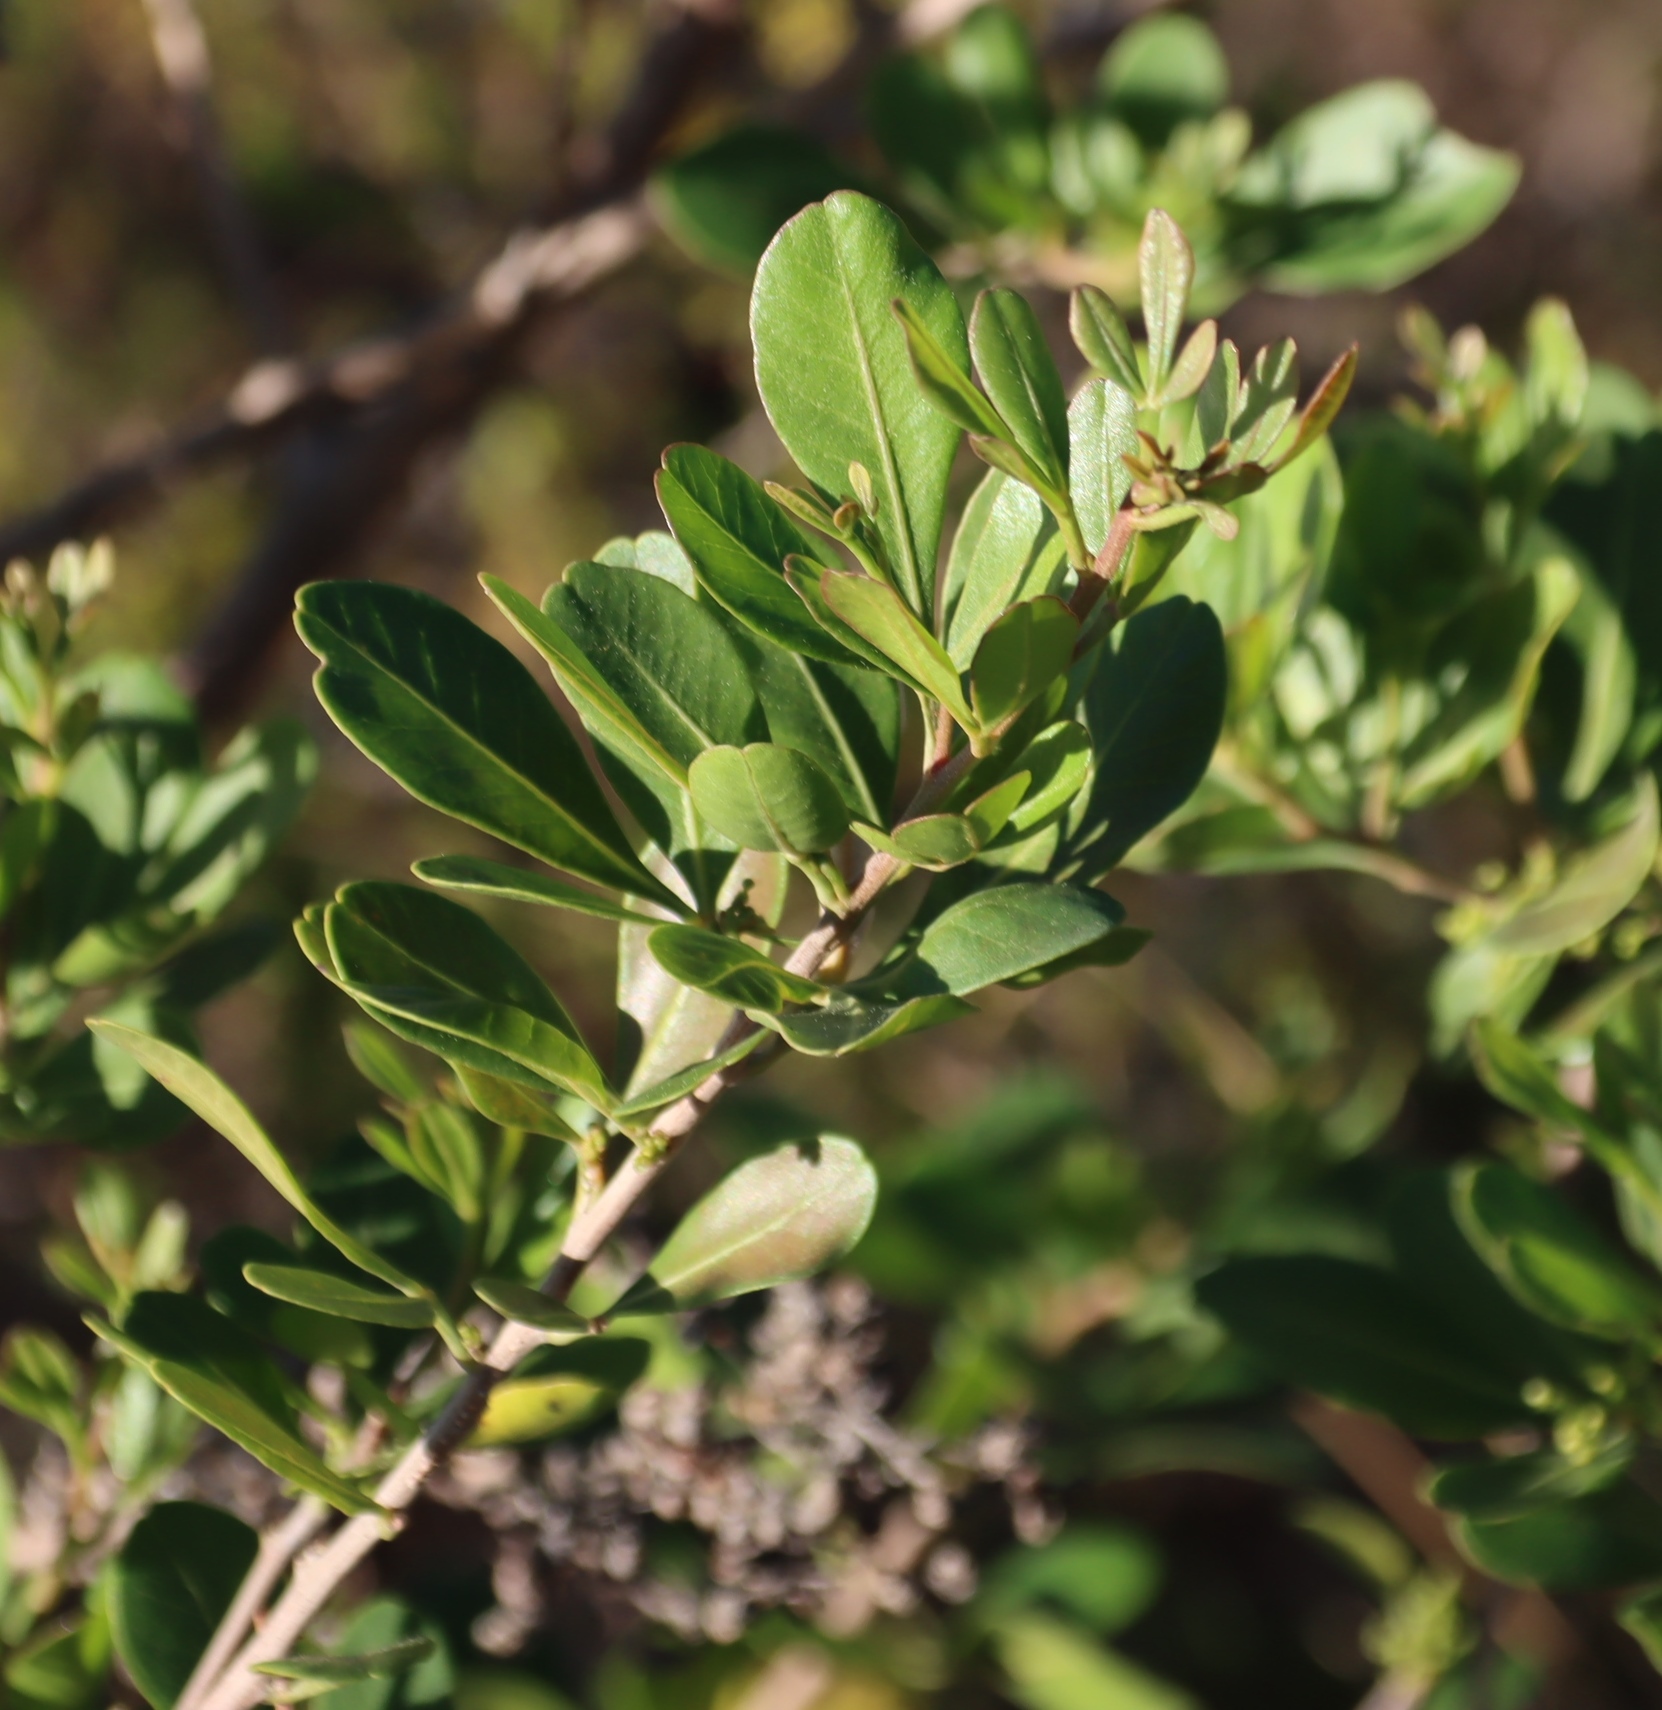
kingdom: Plantae
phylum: Tracheophyta
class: Magnoliopsida
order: Sapindales
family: Anacardiaceae
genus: Searsia
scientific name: Searsia lucida
